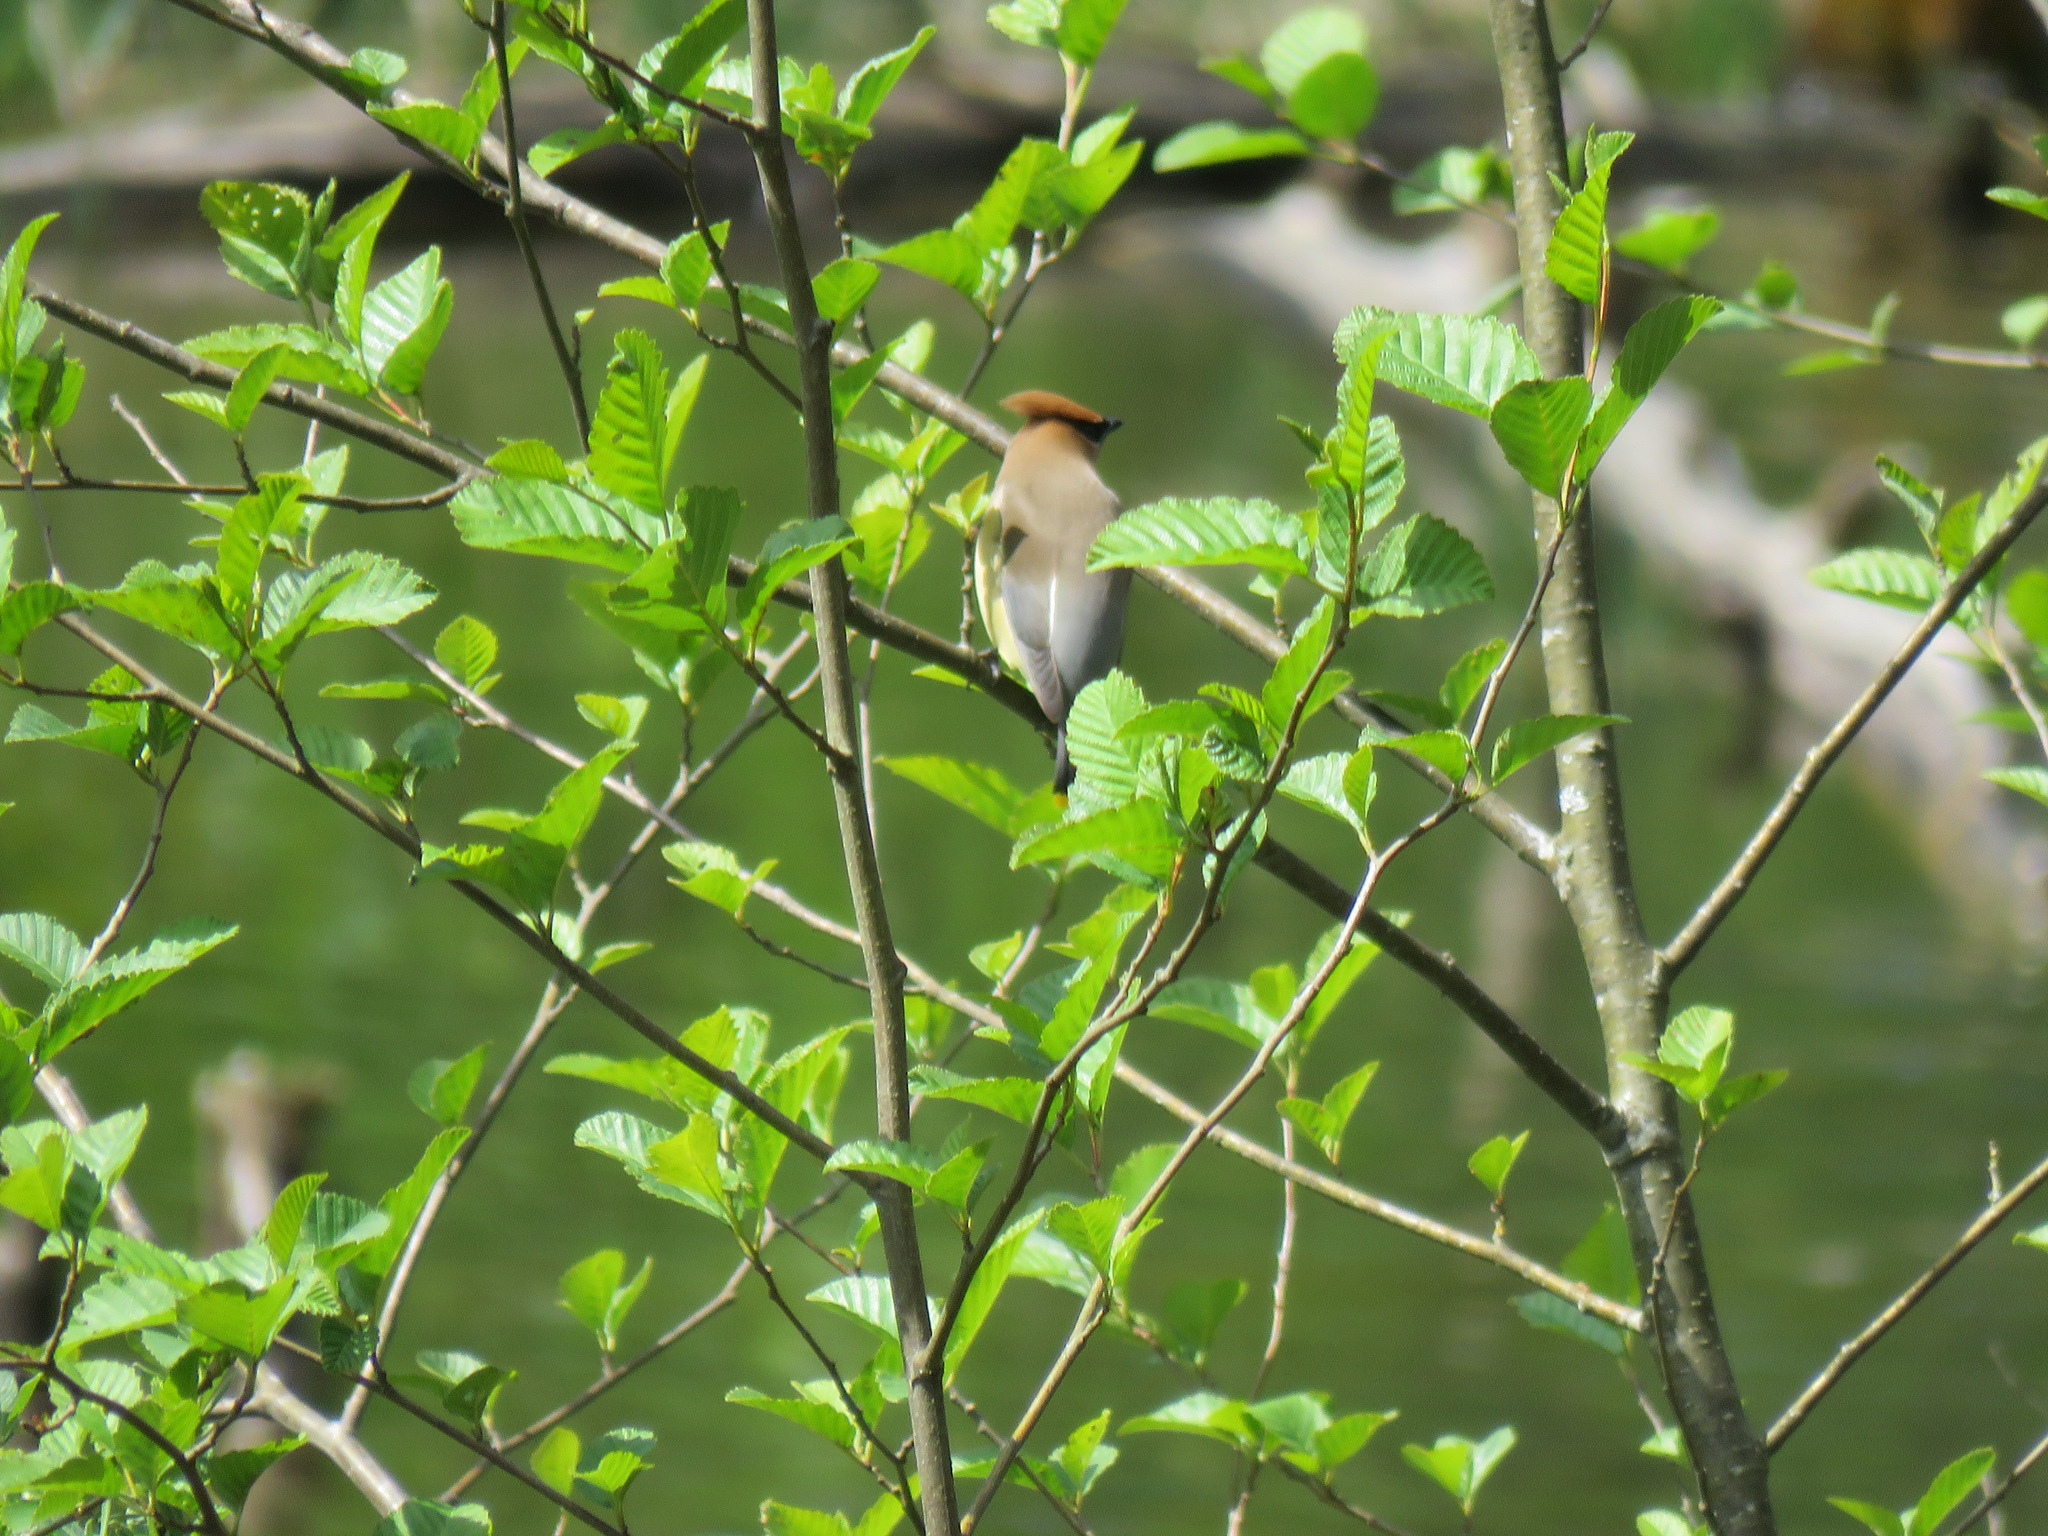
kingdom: Animalia
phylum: Chordata
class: Aves
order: Passeriformes
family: Bombycillidae
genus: Bombycilla
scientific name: Bombycilla cedrorum
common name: Cedar waxwing
